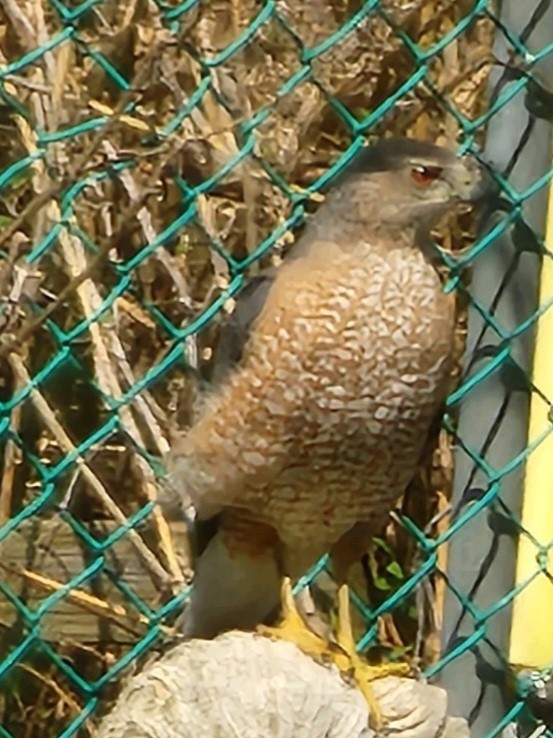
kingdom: Animalia
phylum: Chordata
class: Aves
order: Accipitriformes
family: Accipitridae
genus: Accipiter
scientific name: Accipiter cooperii
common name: Cooper's hawk
